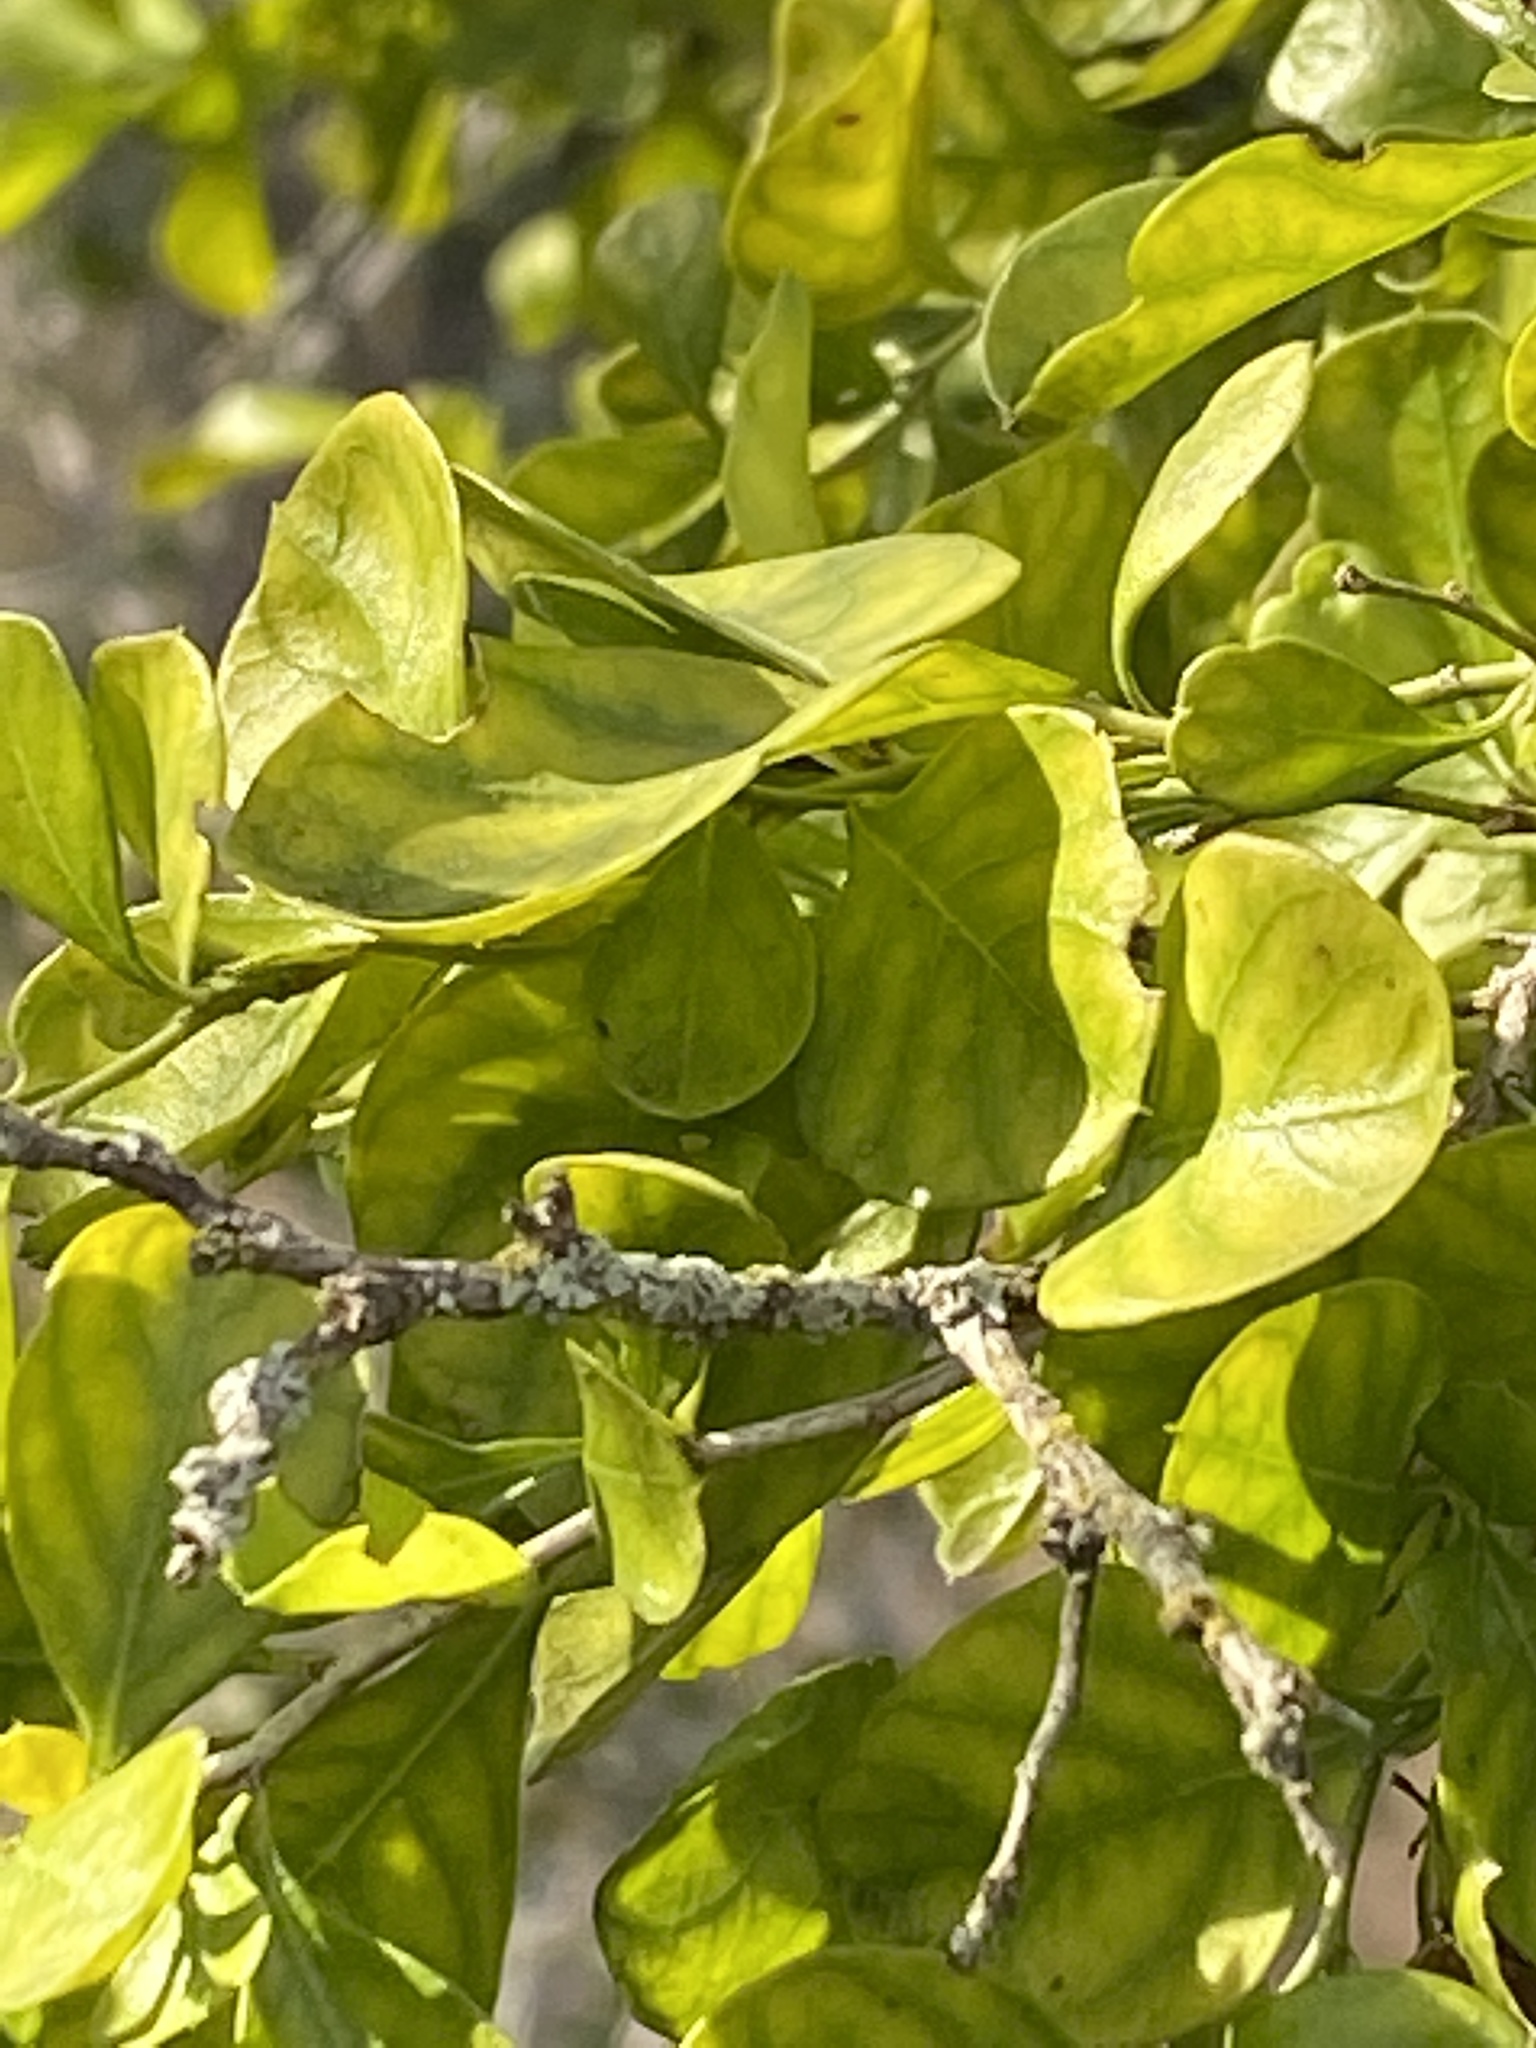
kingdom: Plantae
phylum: Tracheophyta
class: Magnoliopsida
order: Rosales
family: Rhamnaceae
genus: Condalia
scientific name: Condalia hookeri
